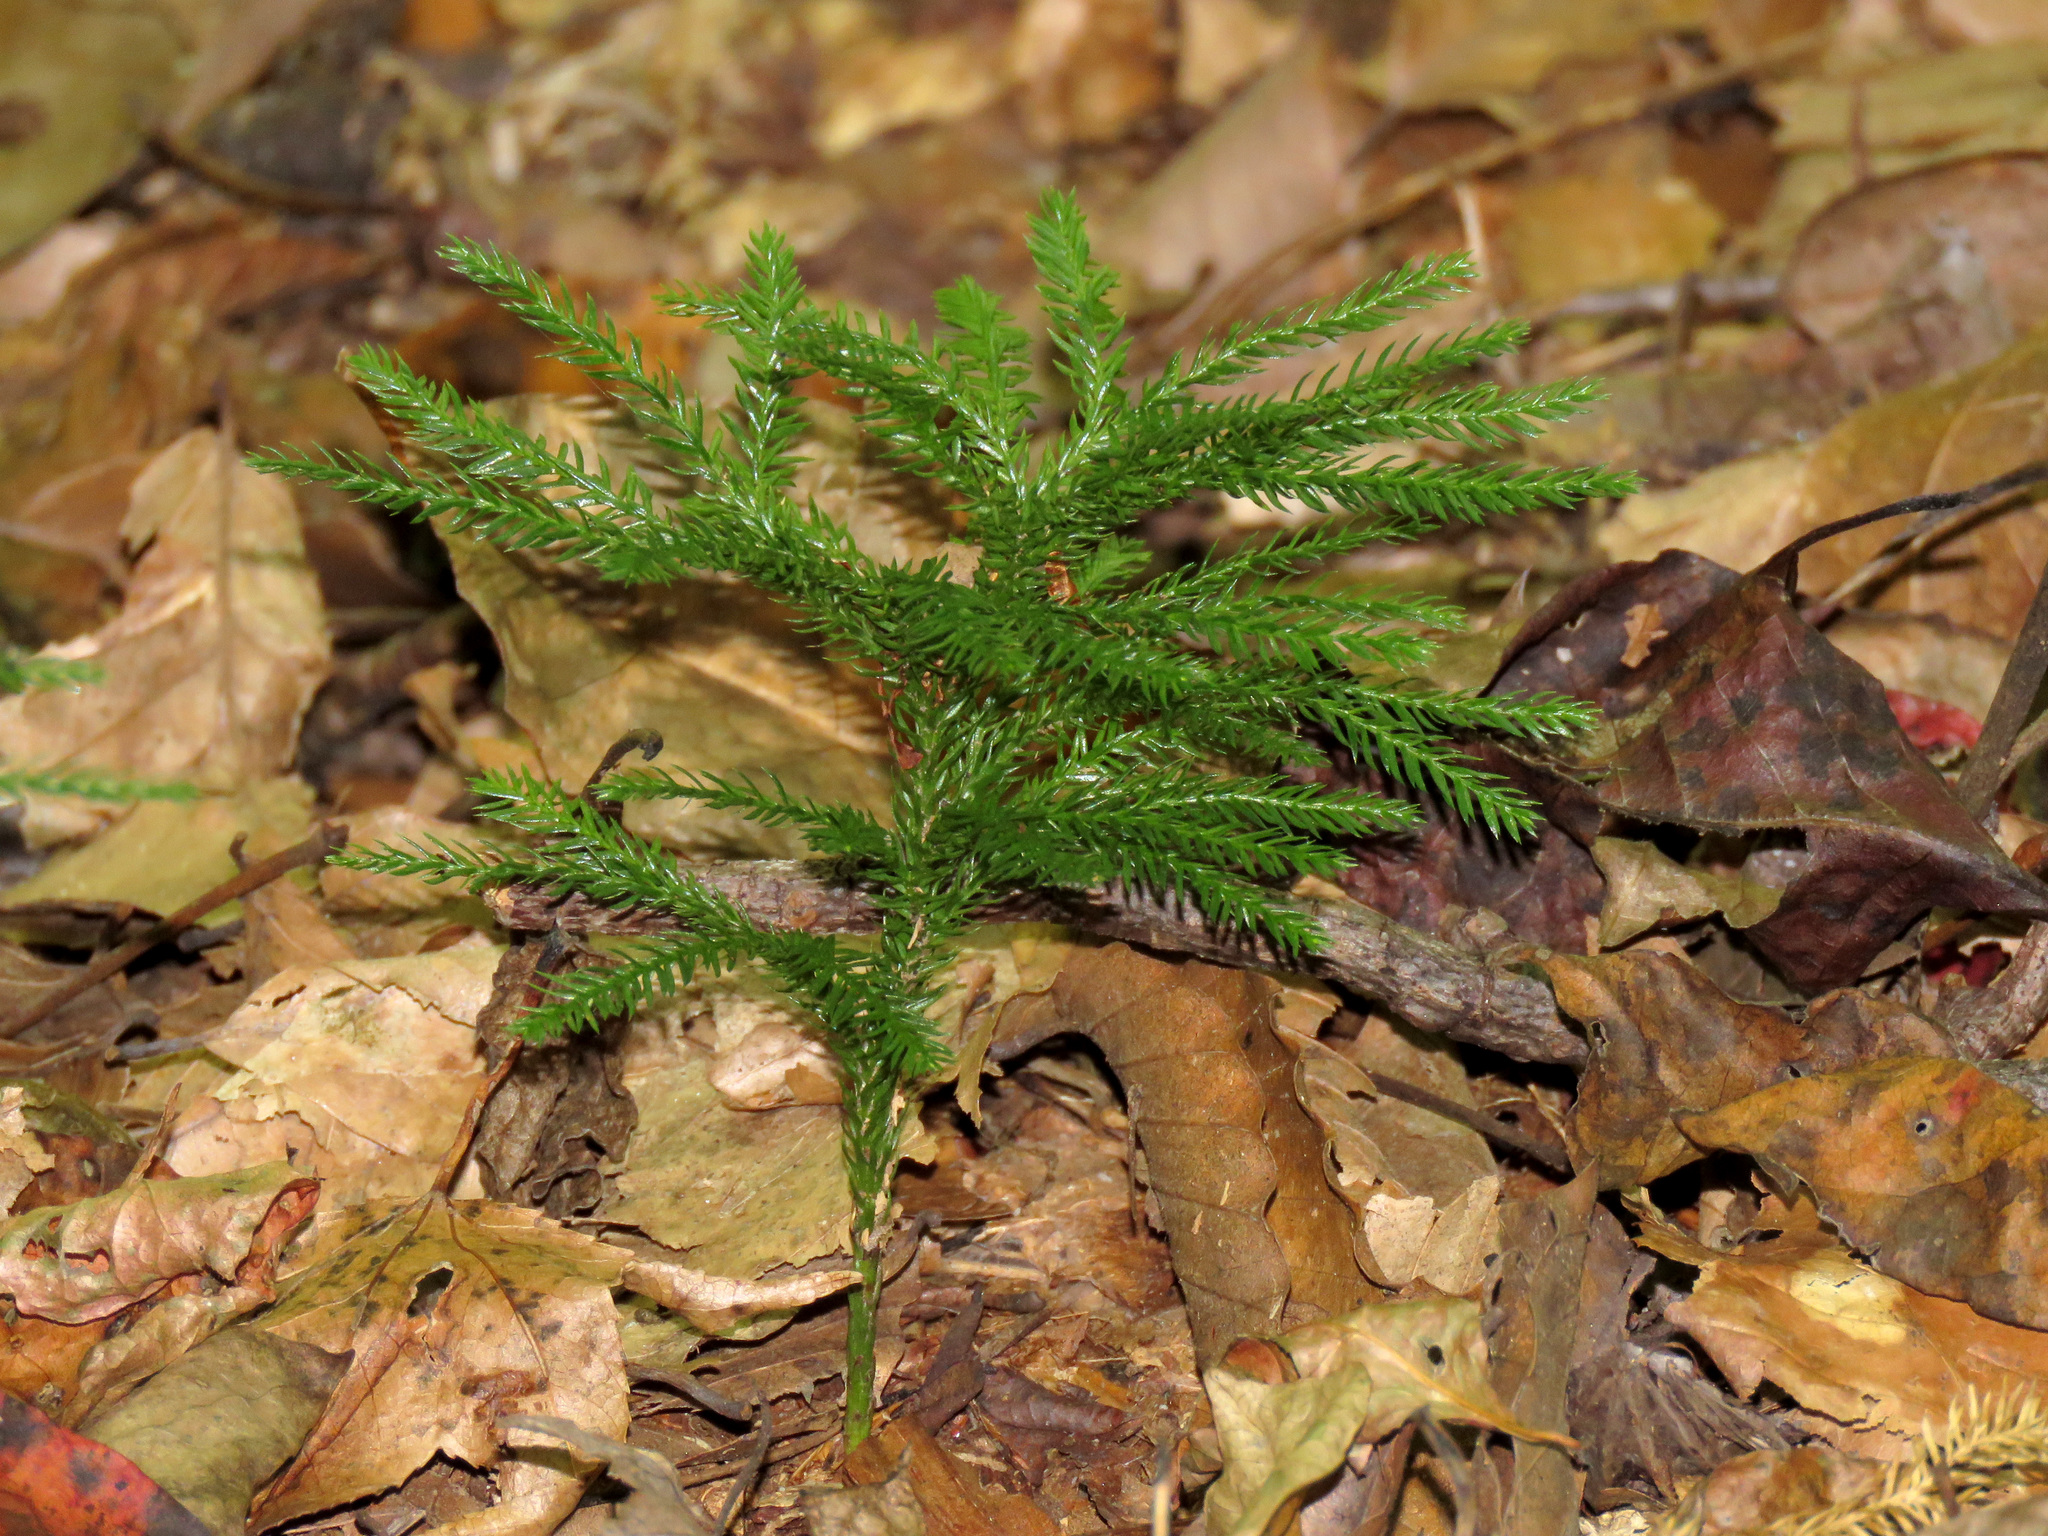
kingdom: Plantae
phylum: Tracheophyta
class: Lycopodiopsida
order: Lycopodiales
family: Lycopodiaceae
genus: Dendrolycopodium
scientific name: Dendrolycopodium obscurum
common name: Common ground-pine
